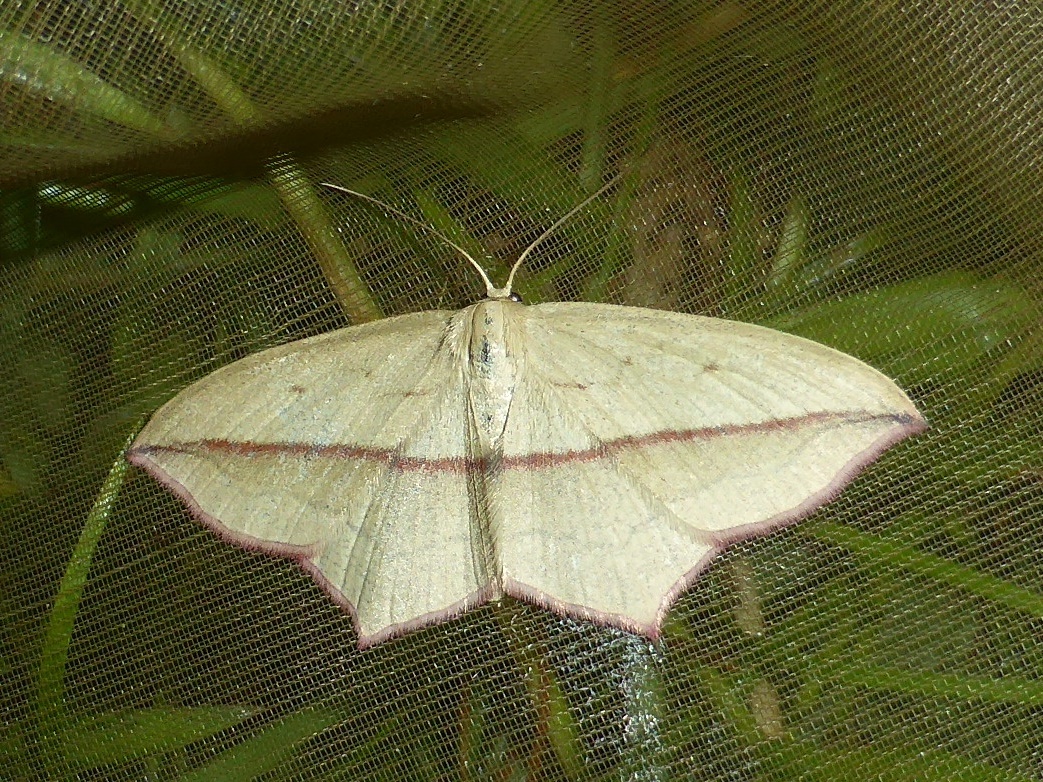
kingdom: Animalia
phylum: Arthropoda
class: Insecta
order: Lepidoptera
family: Geometridae
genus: Timandra
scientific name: Timandra comae
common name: Blood-vein
